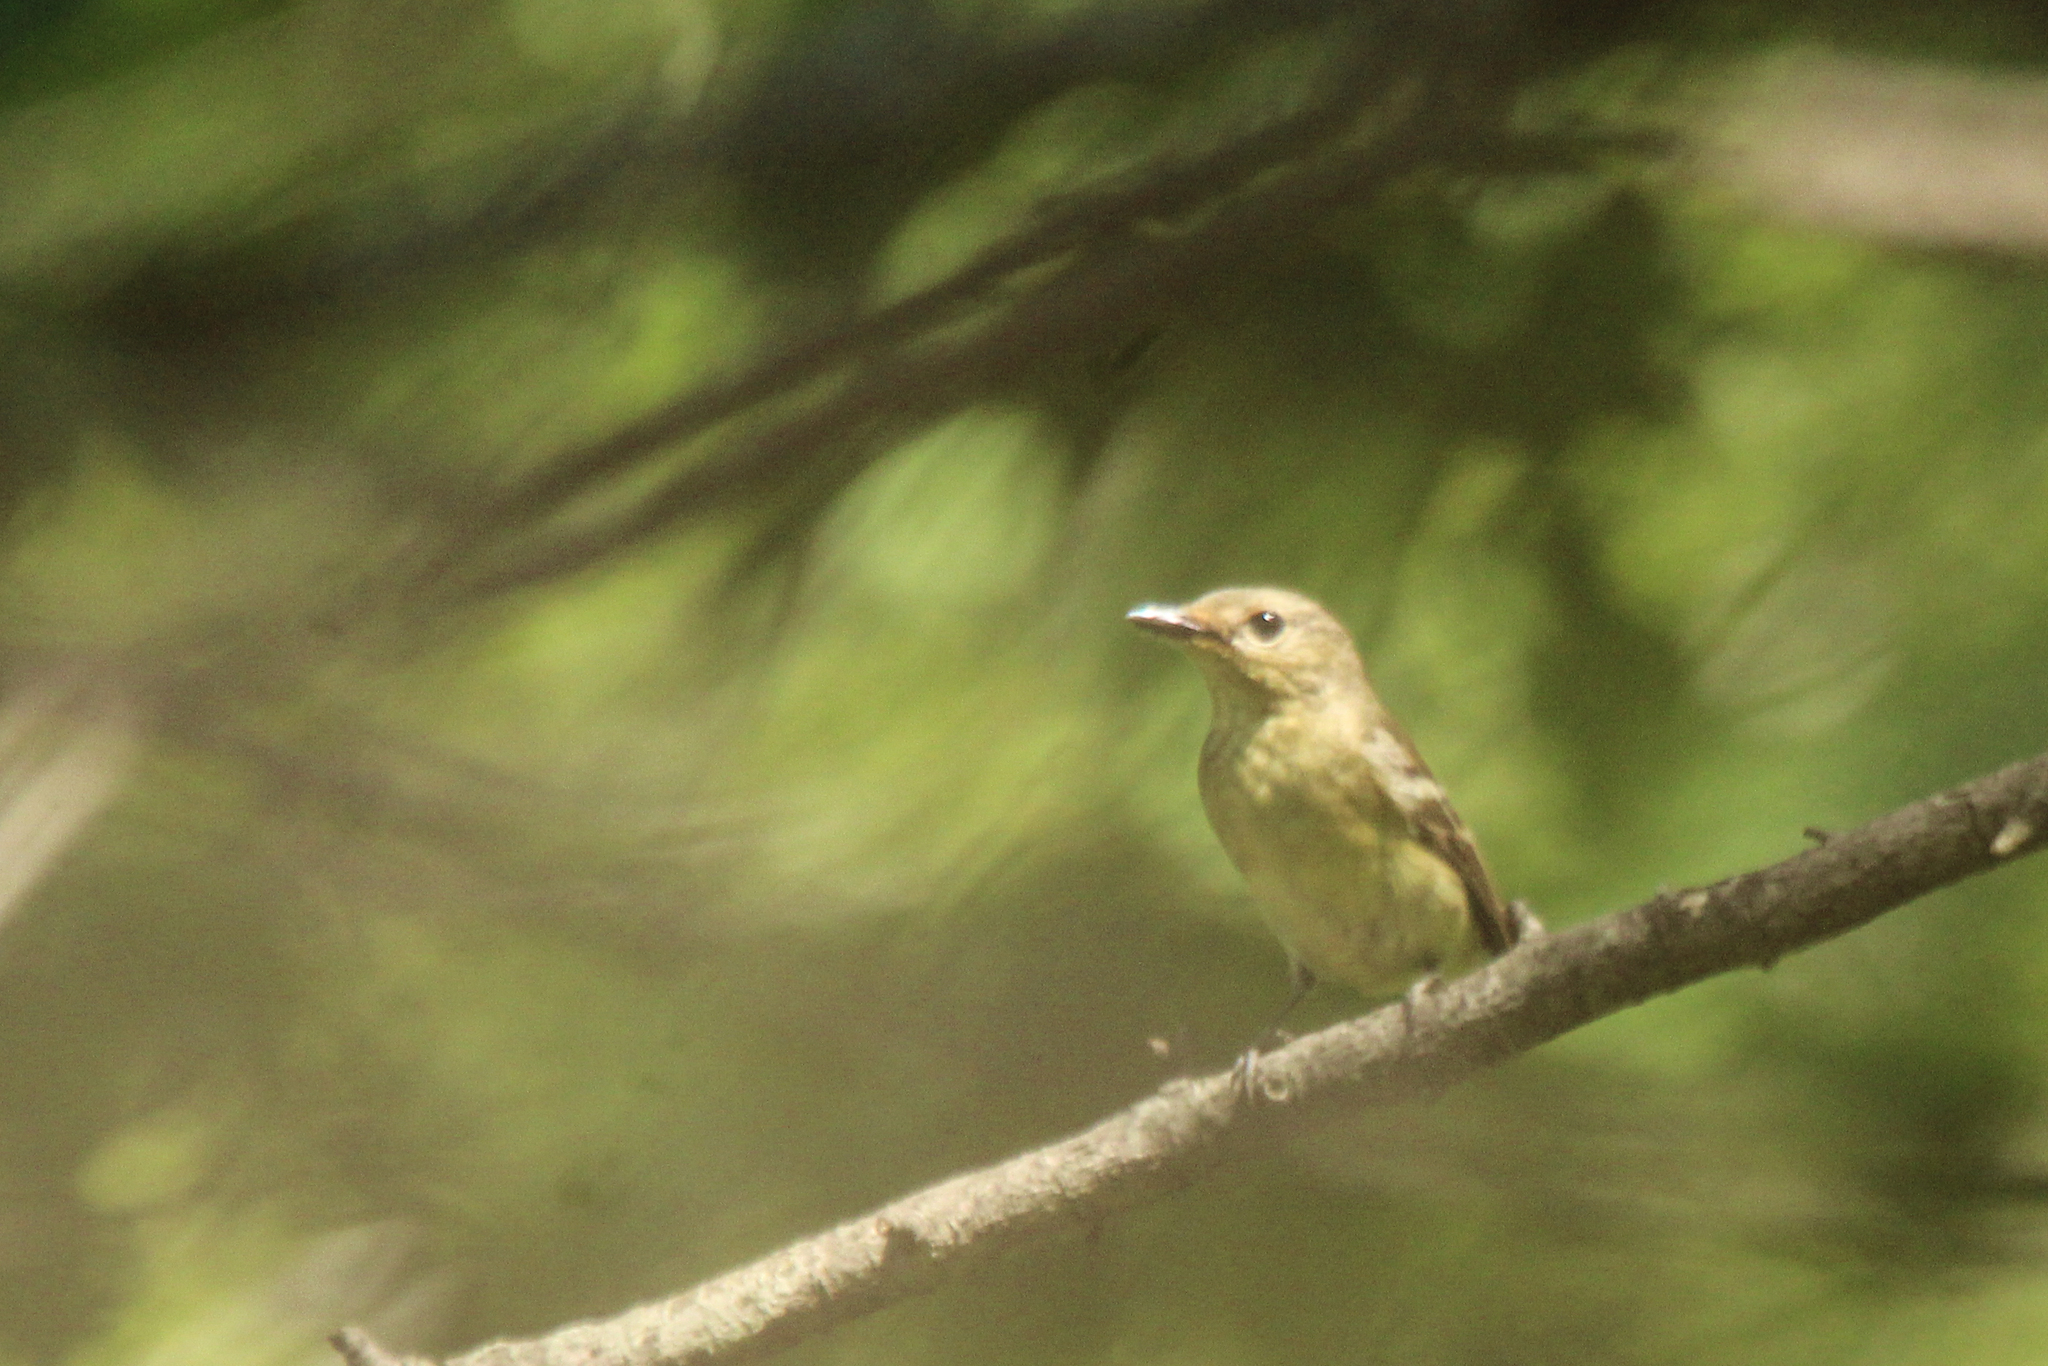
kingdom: Animalia
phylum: Chordata
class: Aves
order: Passeriformes
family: Muscicapidae
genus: Ficedula
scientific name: Ficedula zanthopygia
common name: Yellow-rumped flycatcher
